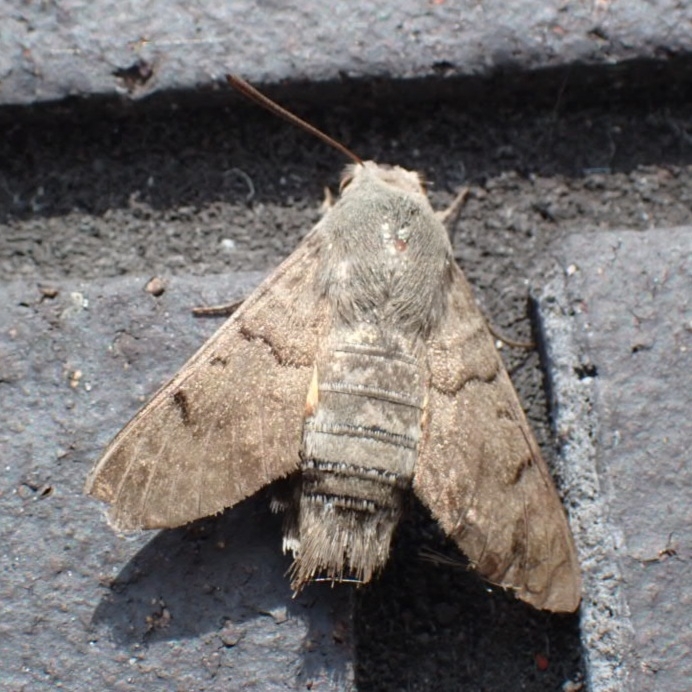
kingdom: Animalia
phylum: Arthropoda
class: Insecta
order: Lepidoptera
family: Sphingidae
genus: Macroglossum
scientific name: Macroglossum stellatarum
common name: Humming-bird hawk-moth
